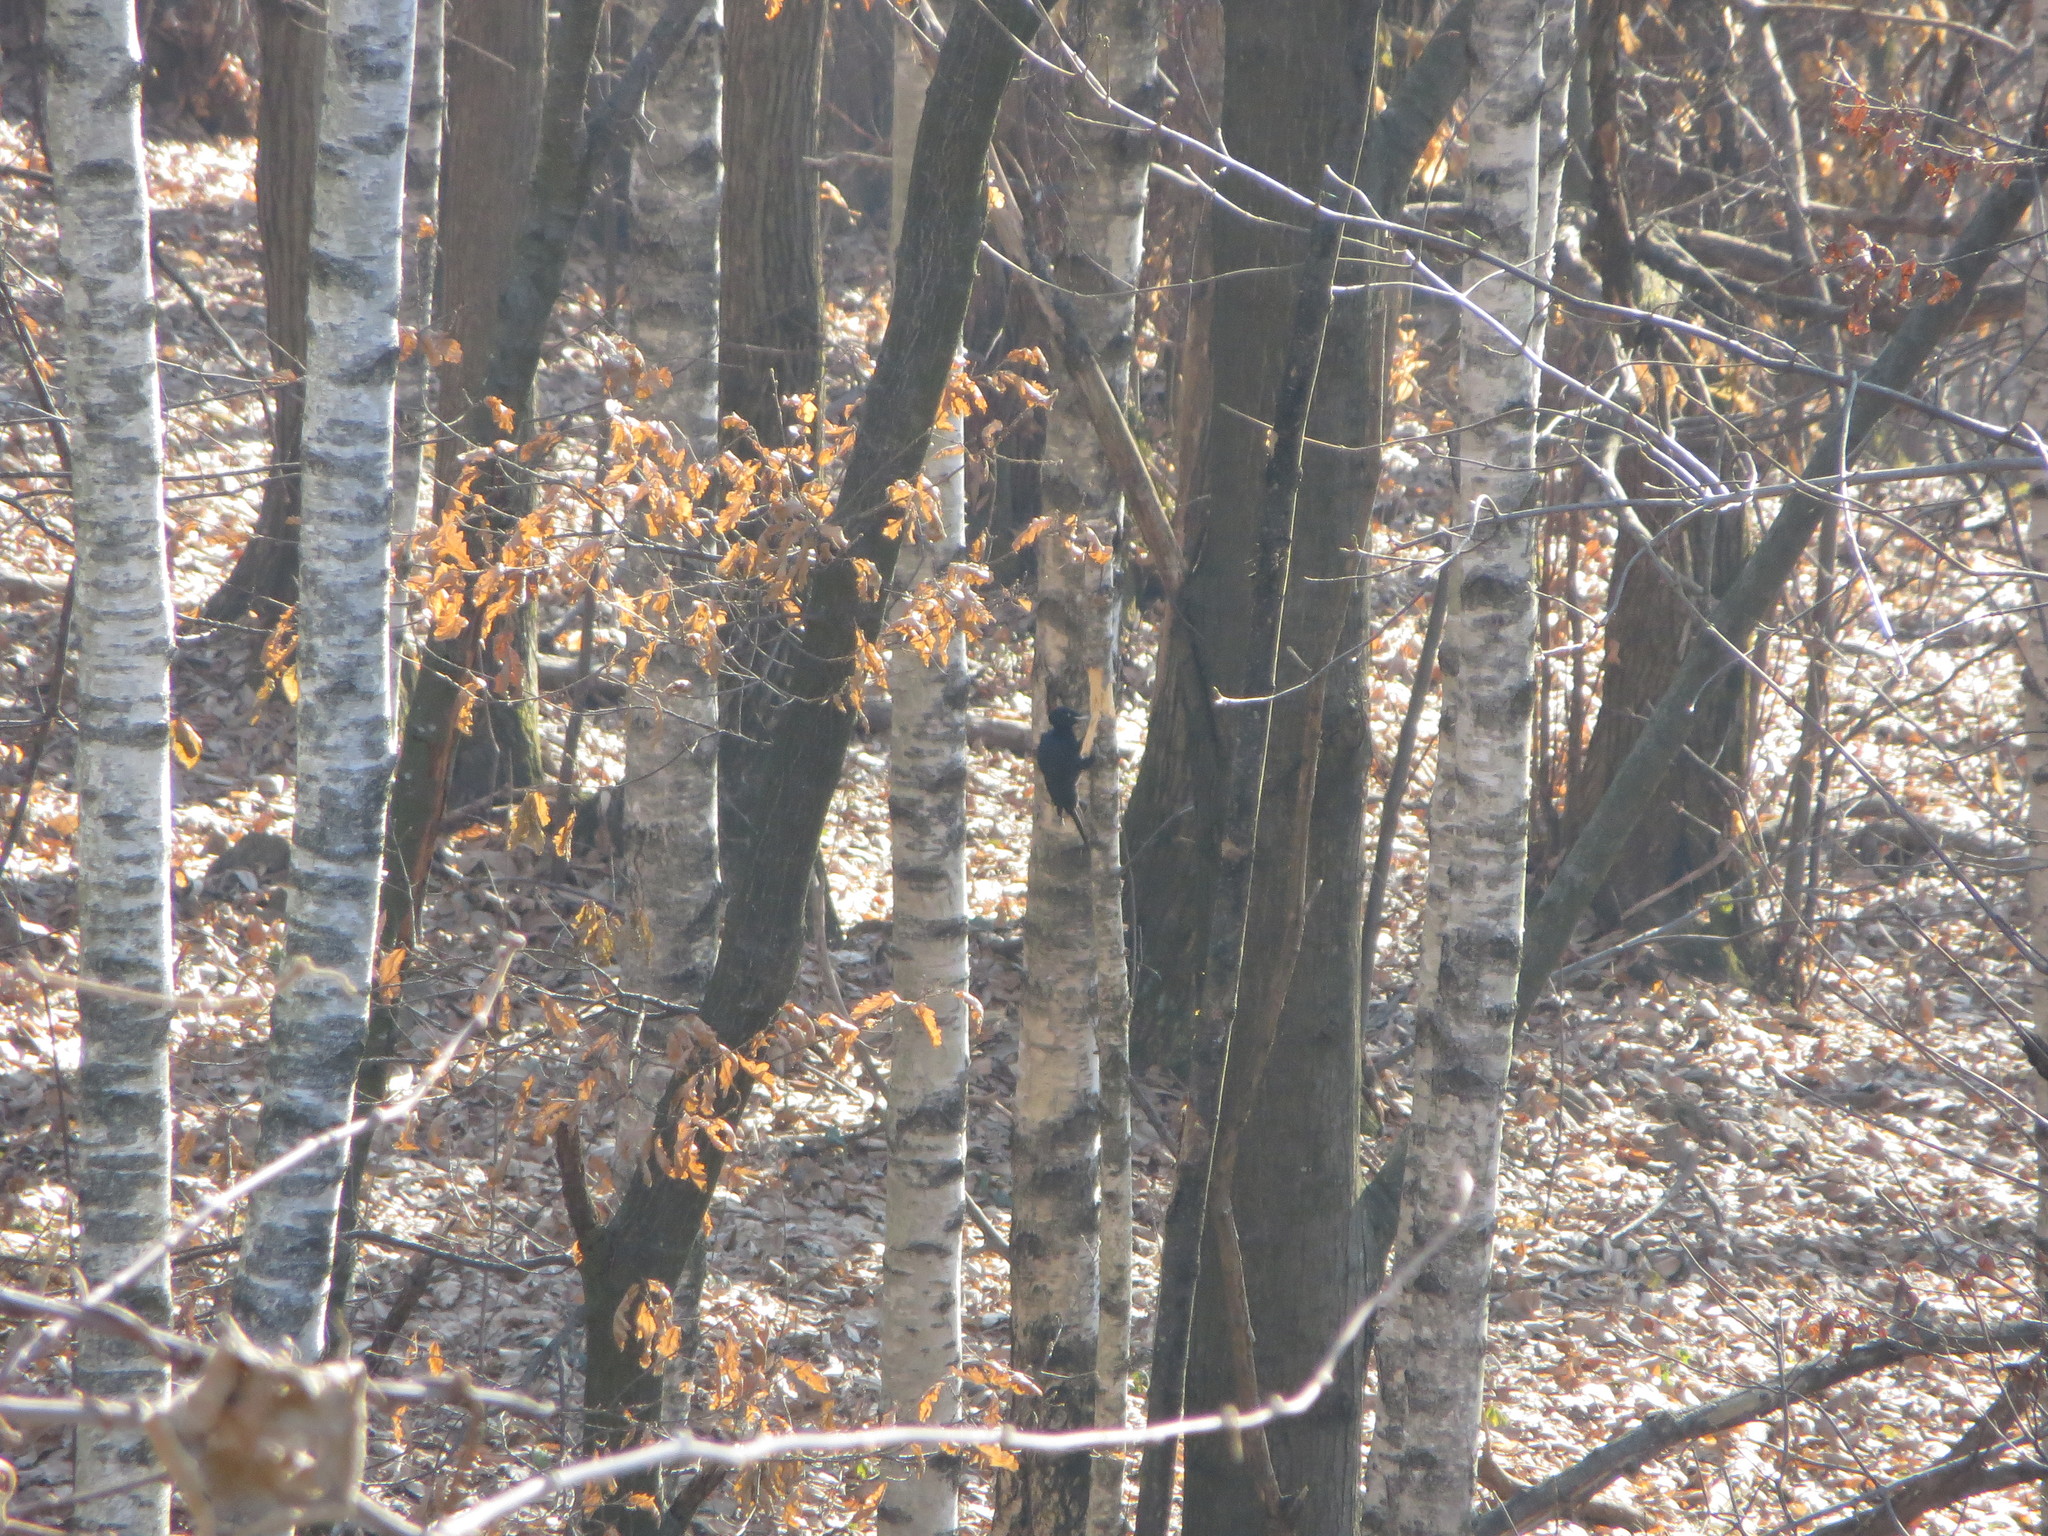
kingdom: Animalia
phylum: Chordata
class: Aves
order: Piciformes
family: Picidae
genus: Dryocopus
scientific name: Dryocopus martius
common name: Black woodpecker
